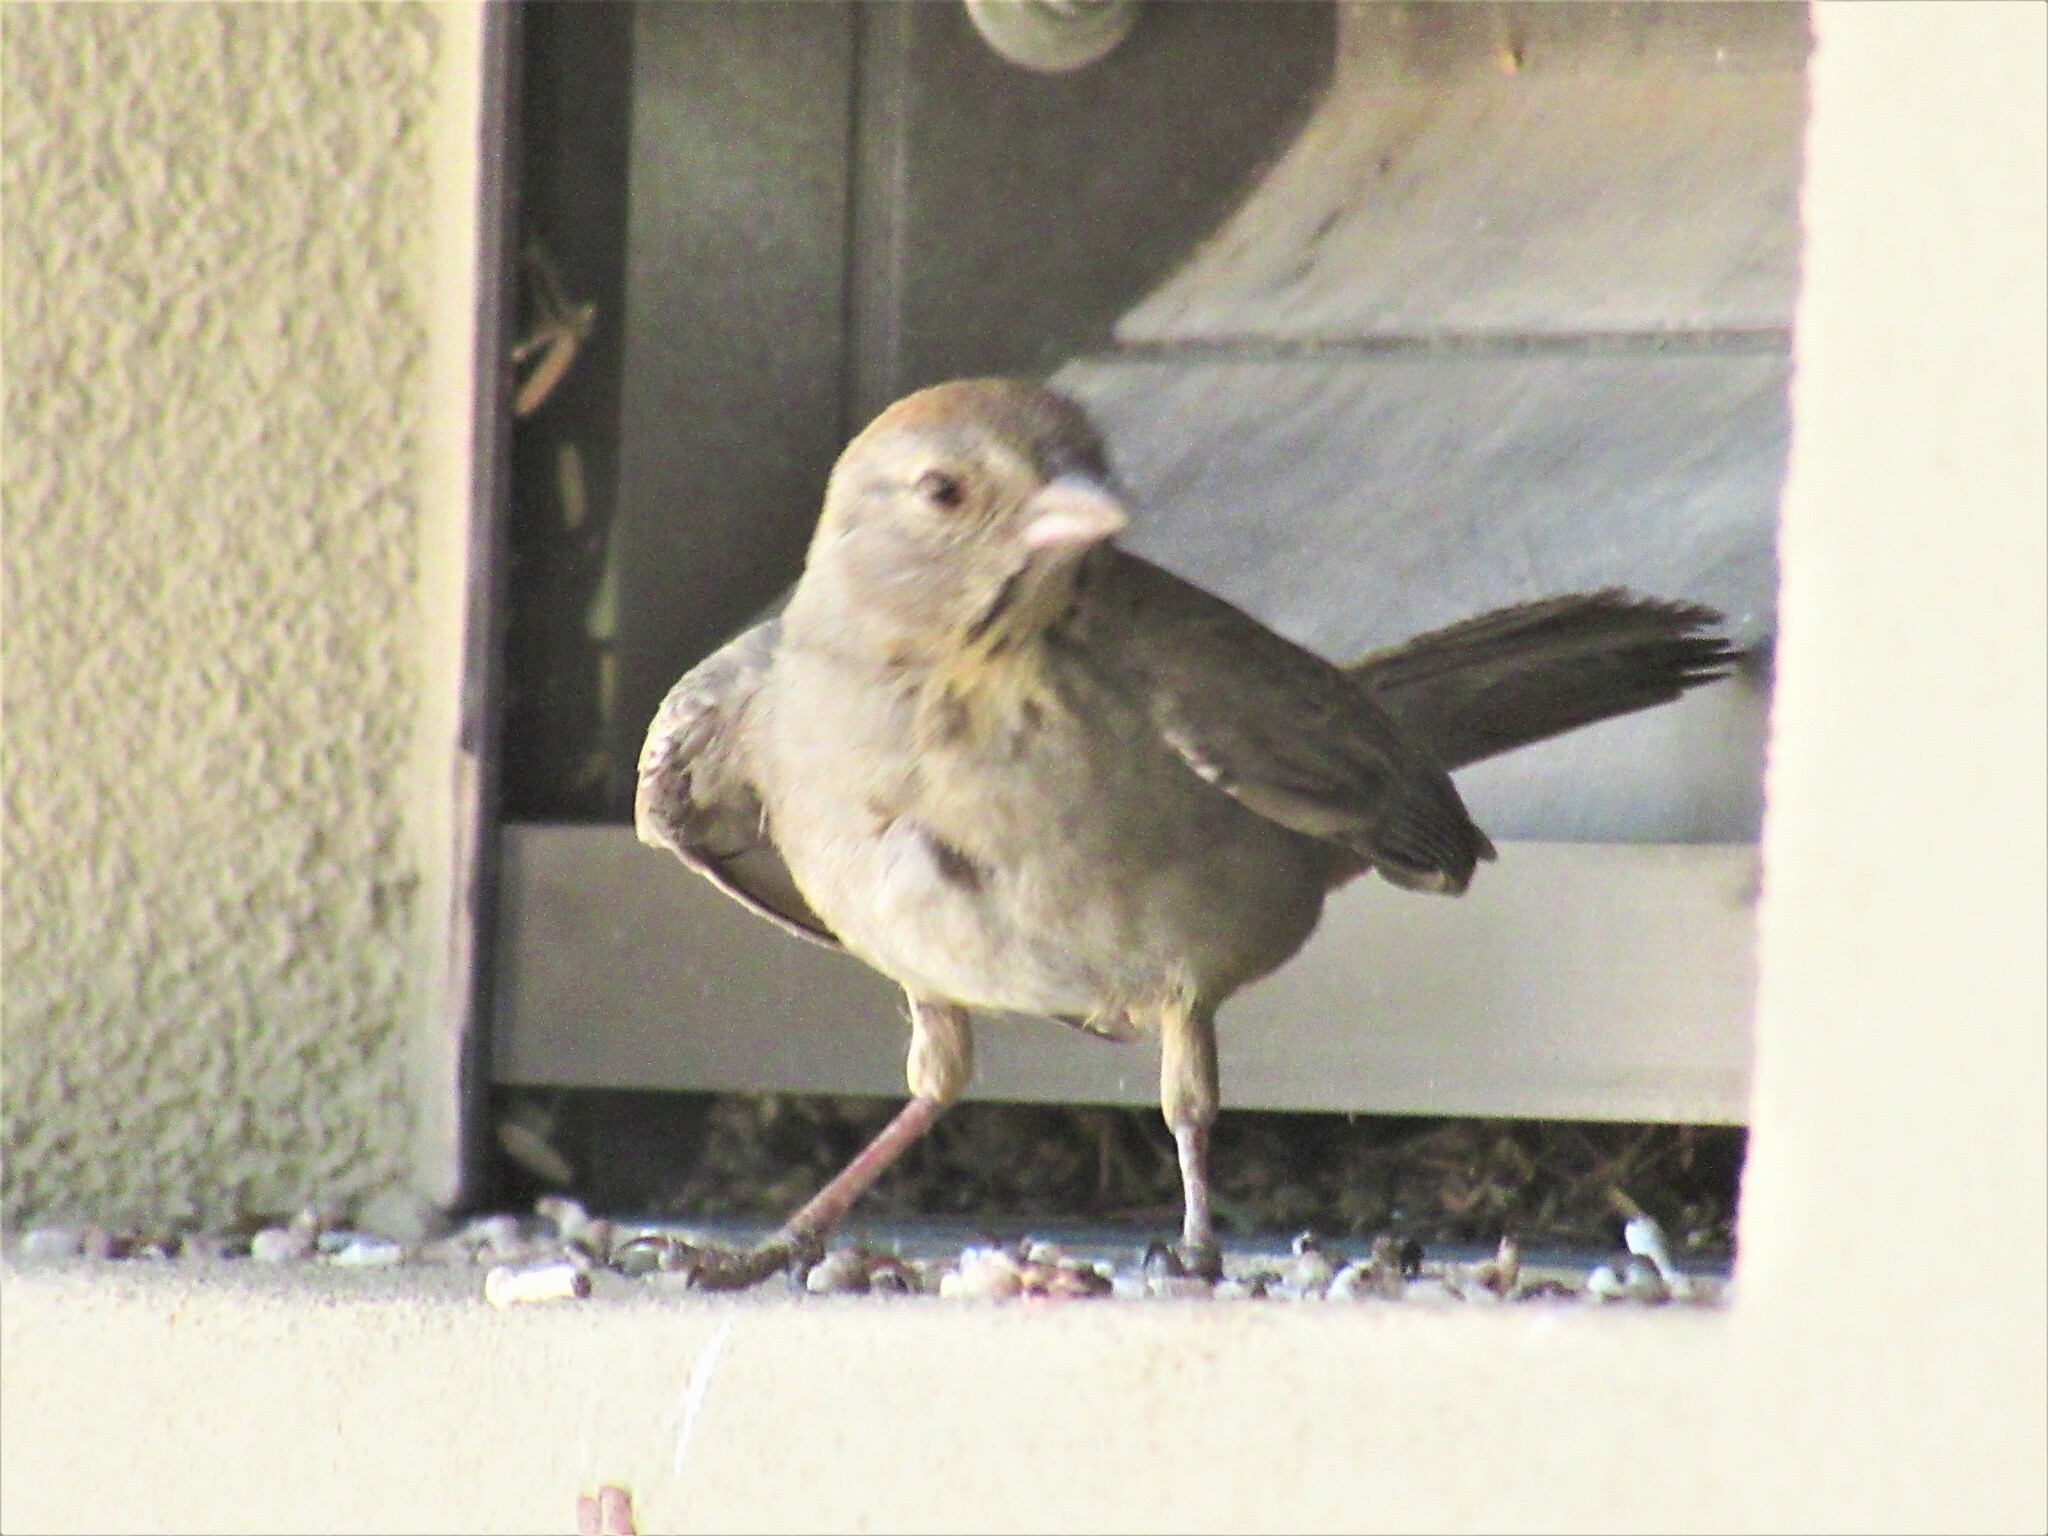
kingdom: Animalia
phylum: Chordata
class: Aves
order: Passeriformes
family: Passerellidae
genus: Melozone
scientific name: Melozone fusca
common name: Canyon towhee
